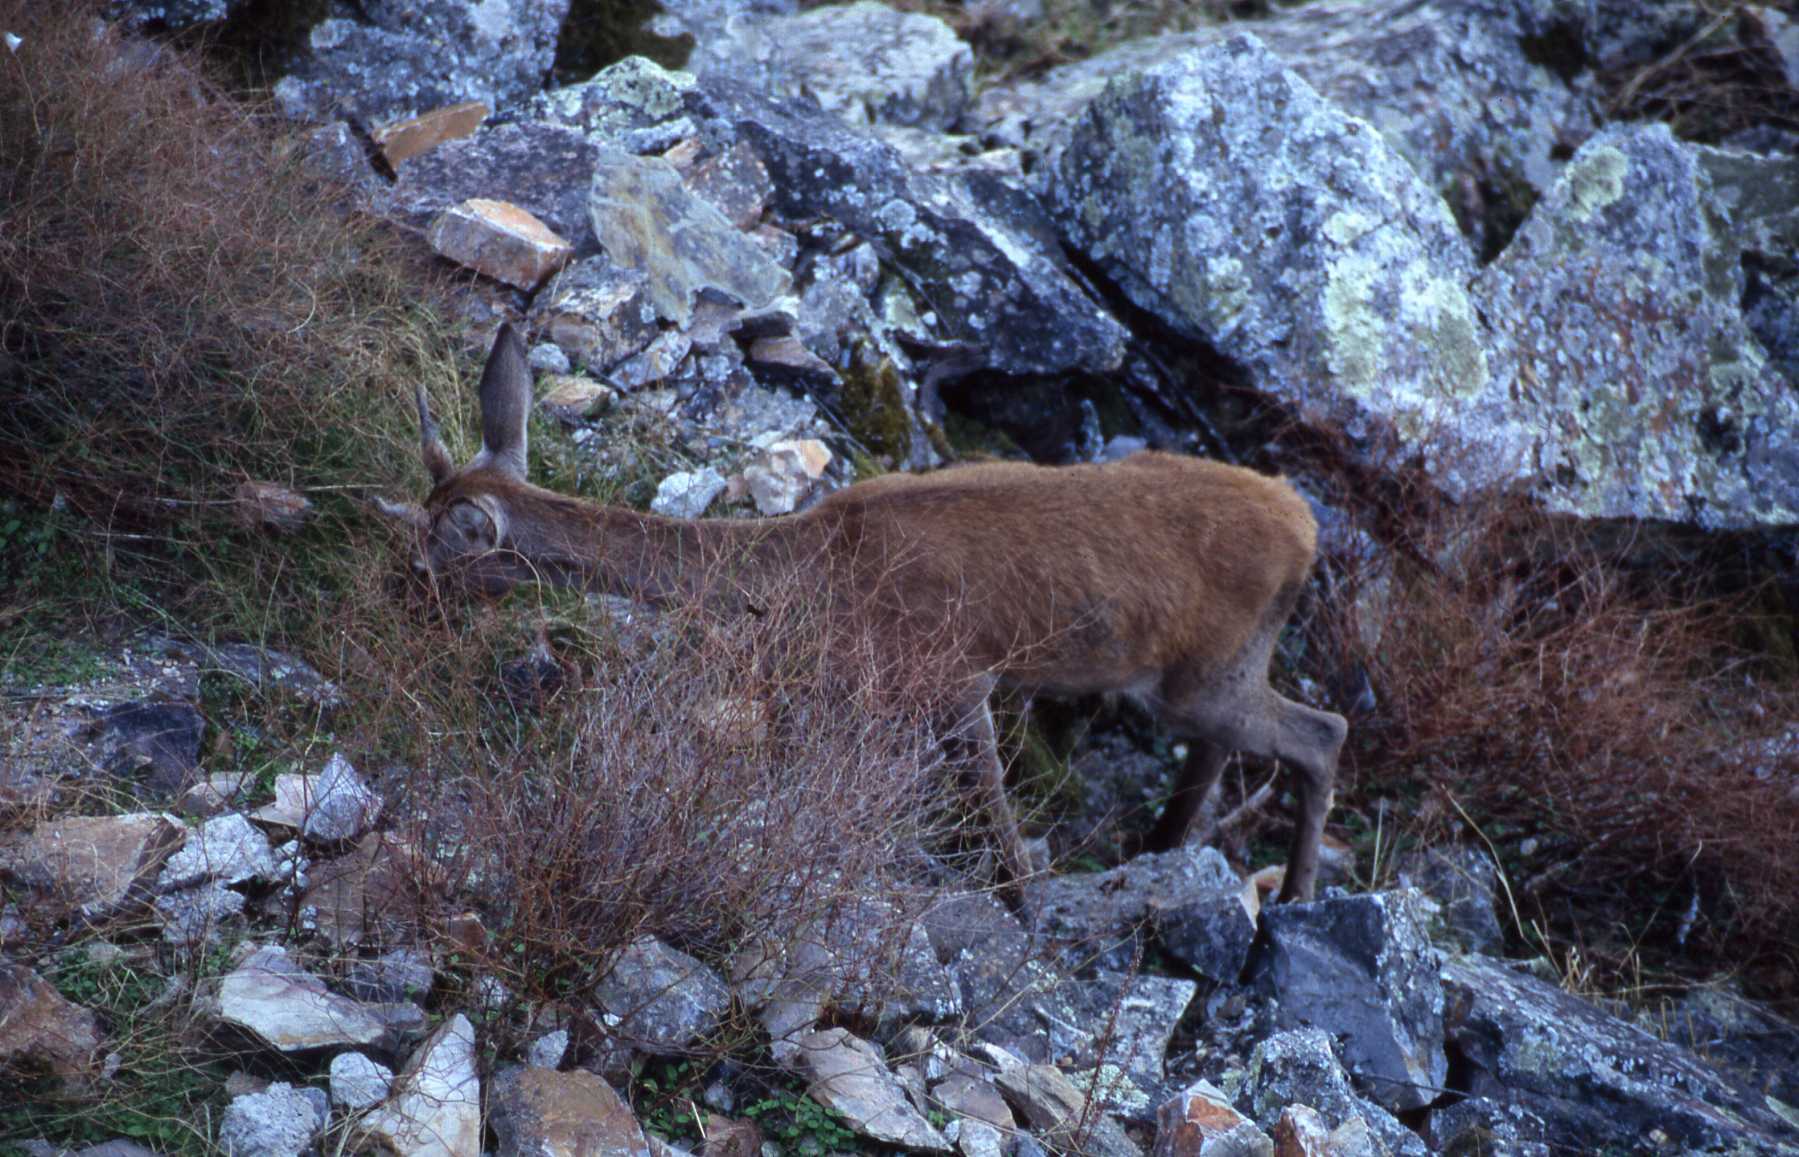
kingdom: Animalia
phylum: Chordata
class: Mammalia
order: Artiodactyla
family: Cervidae
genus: Cervus
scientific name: Cervus elaphus
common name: Red deer
